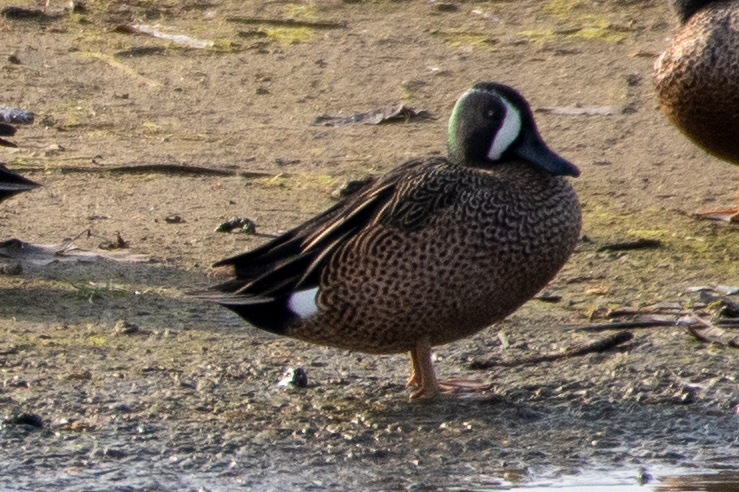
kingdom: Animalia
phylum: Chordata
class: Aves
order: Anseriformes
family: Anatidae
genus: Spatula
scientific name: Spatula discors
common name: Blue-winged teal
